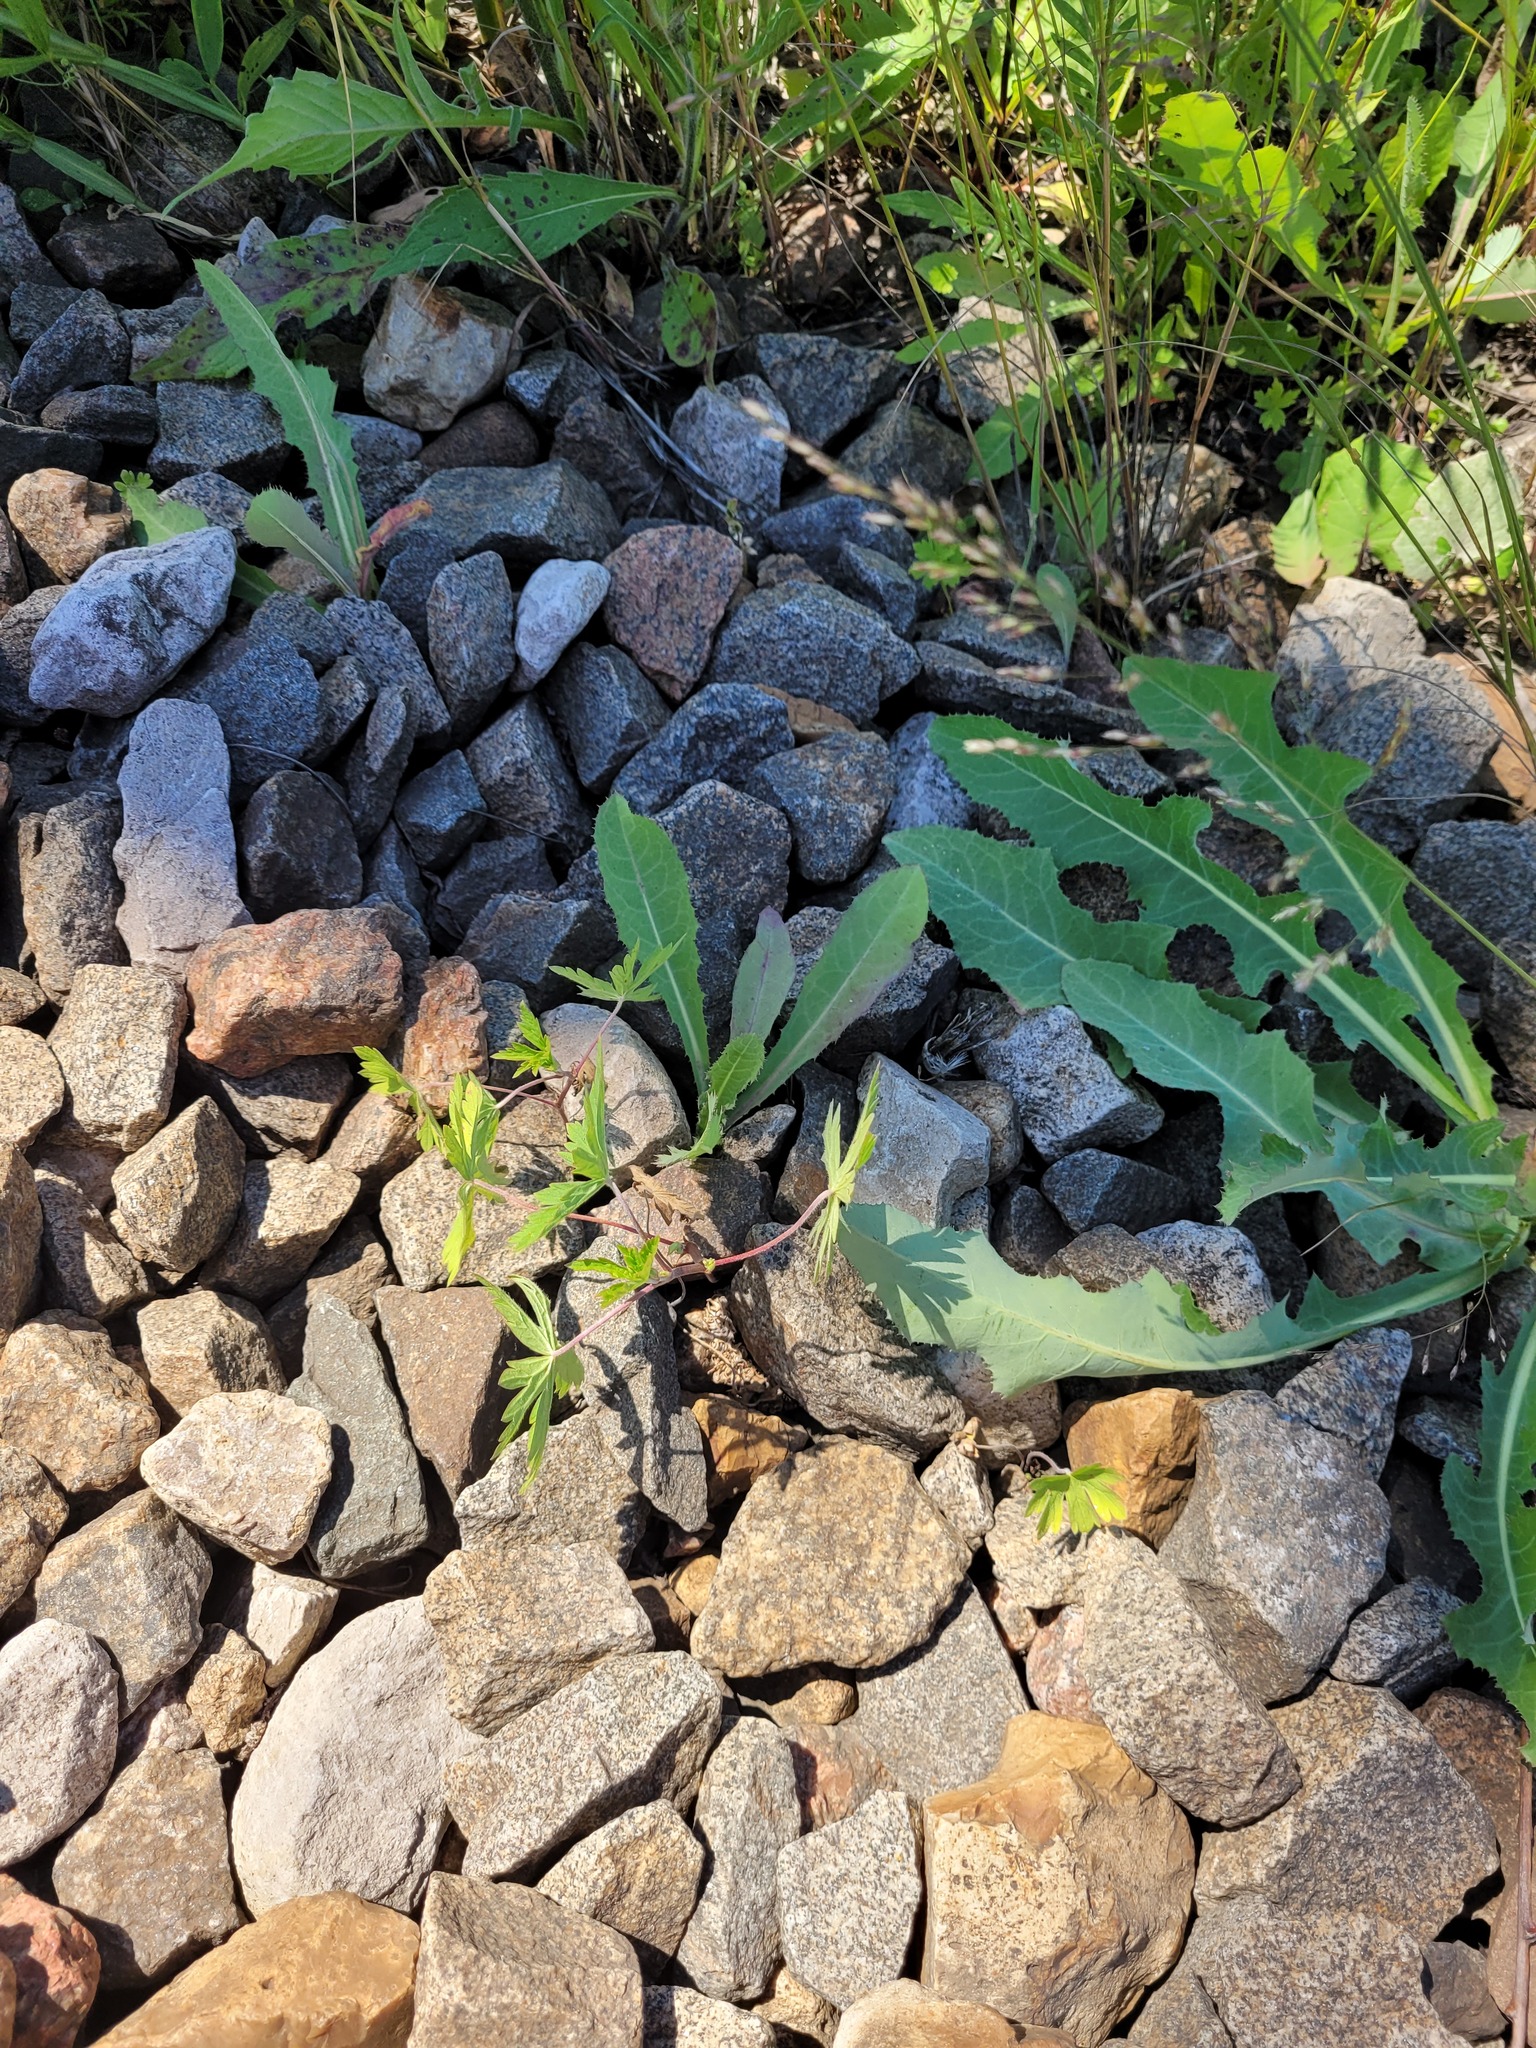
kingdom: Plantae
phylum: Tracheophyta
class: Magnoliopsida
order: Geraniales
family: Geraniaceae
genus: Geranium
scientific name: Geranium sibiricum
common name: Siberian crane's-bill
